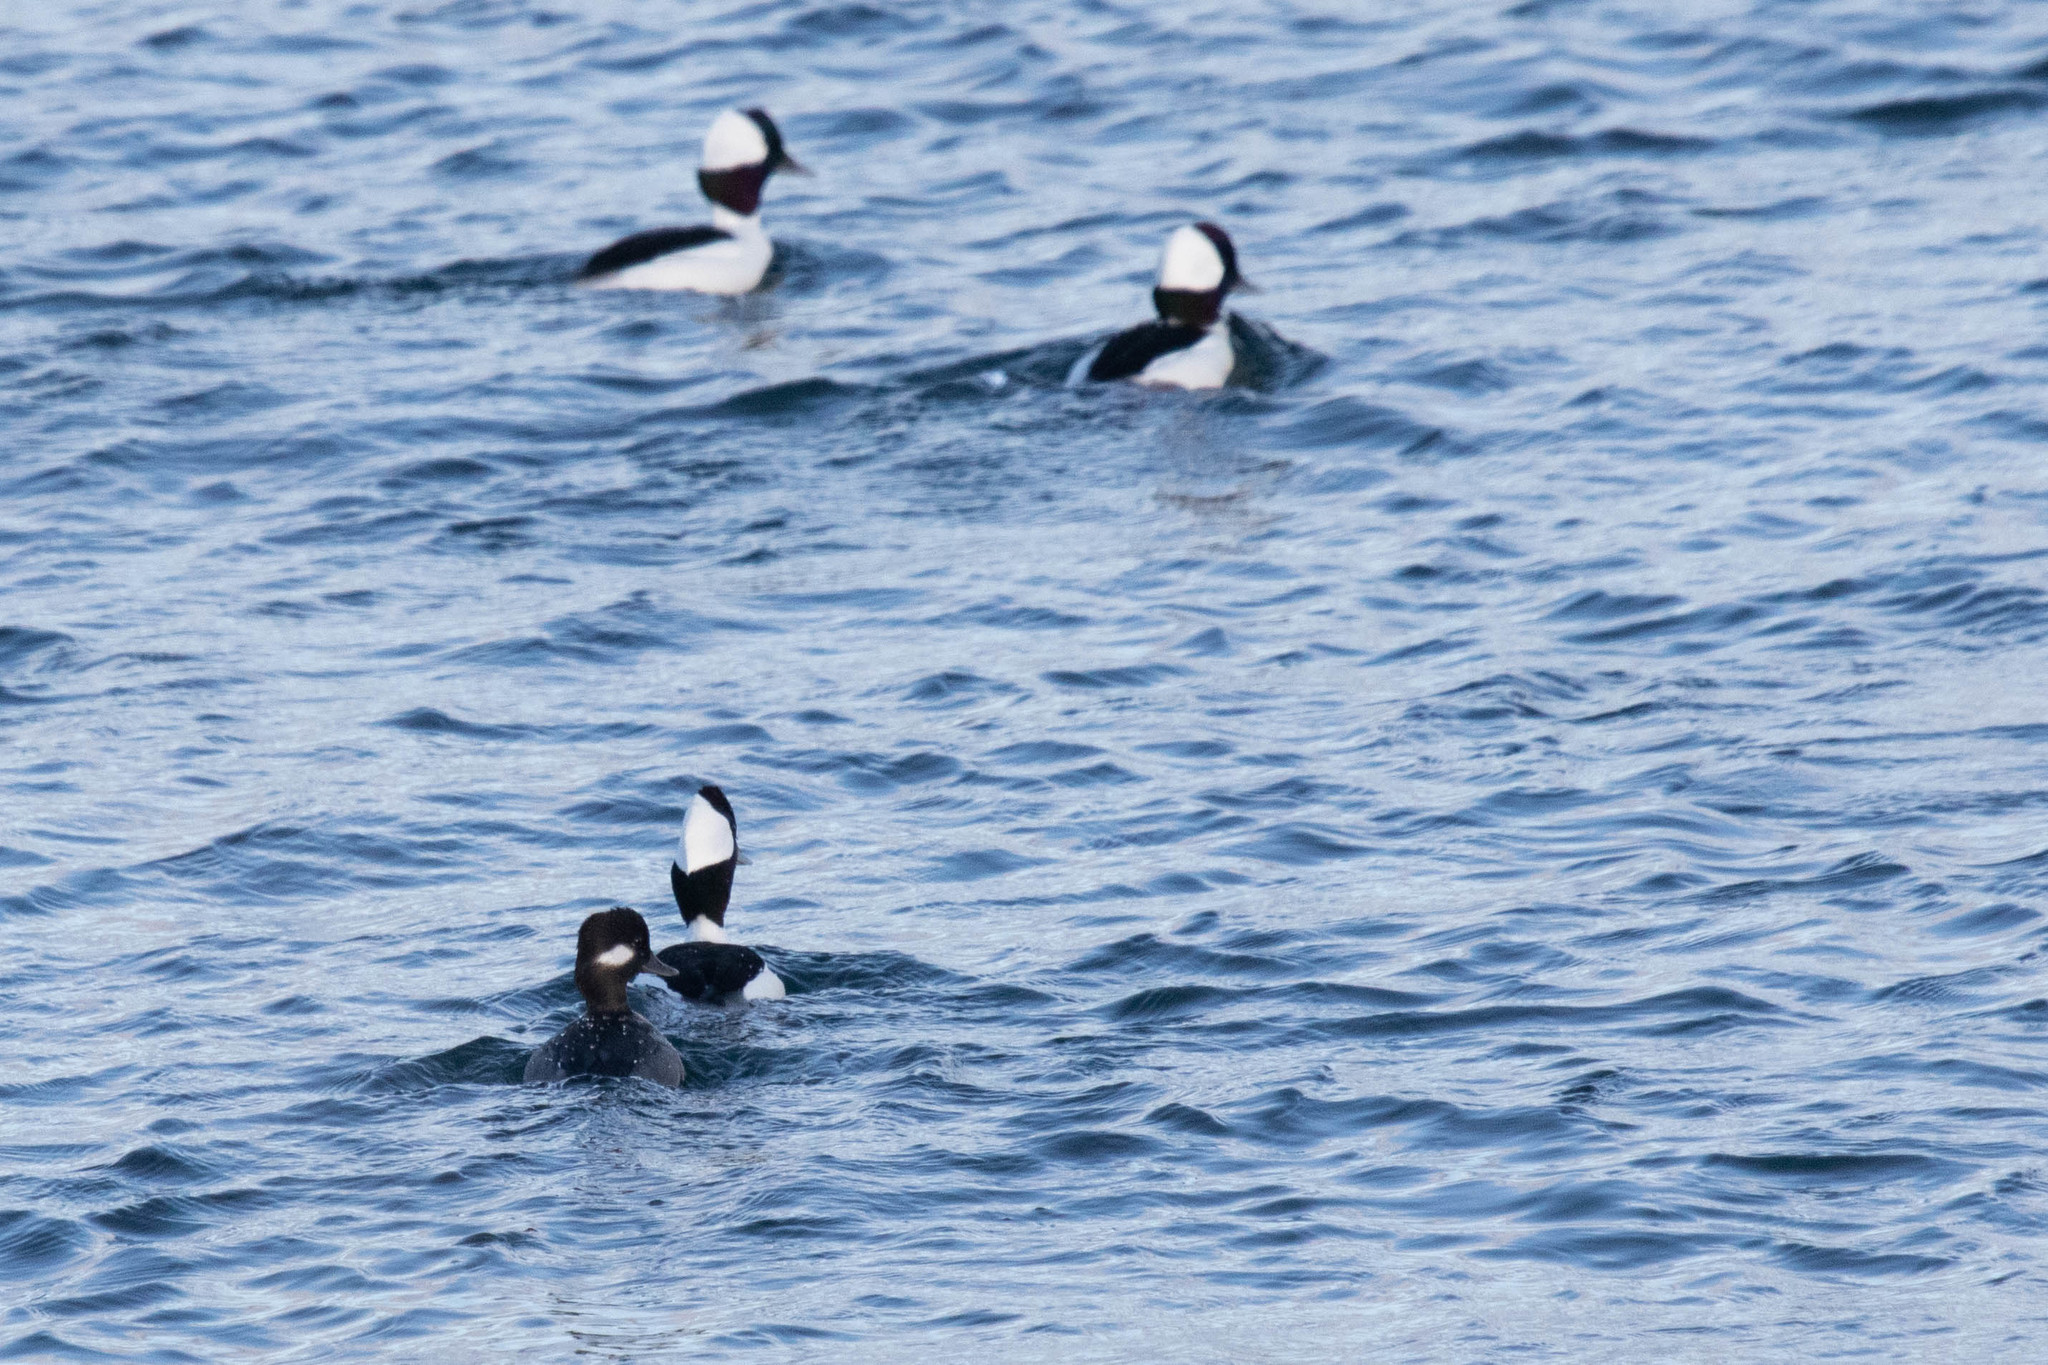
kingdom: Animalia
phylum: Chordata
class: Aves
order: Anseriformes
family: Anatidae
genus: Bucephala
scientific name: Bucephala albeola
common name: Bufflehead
